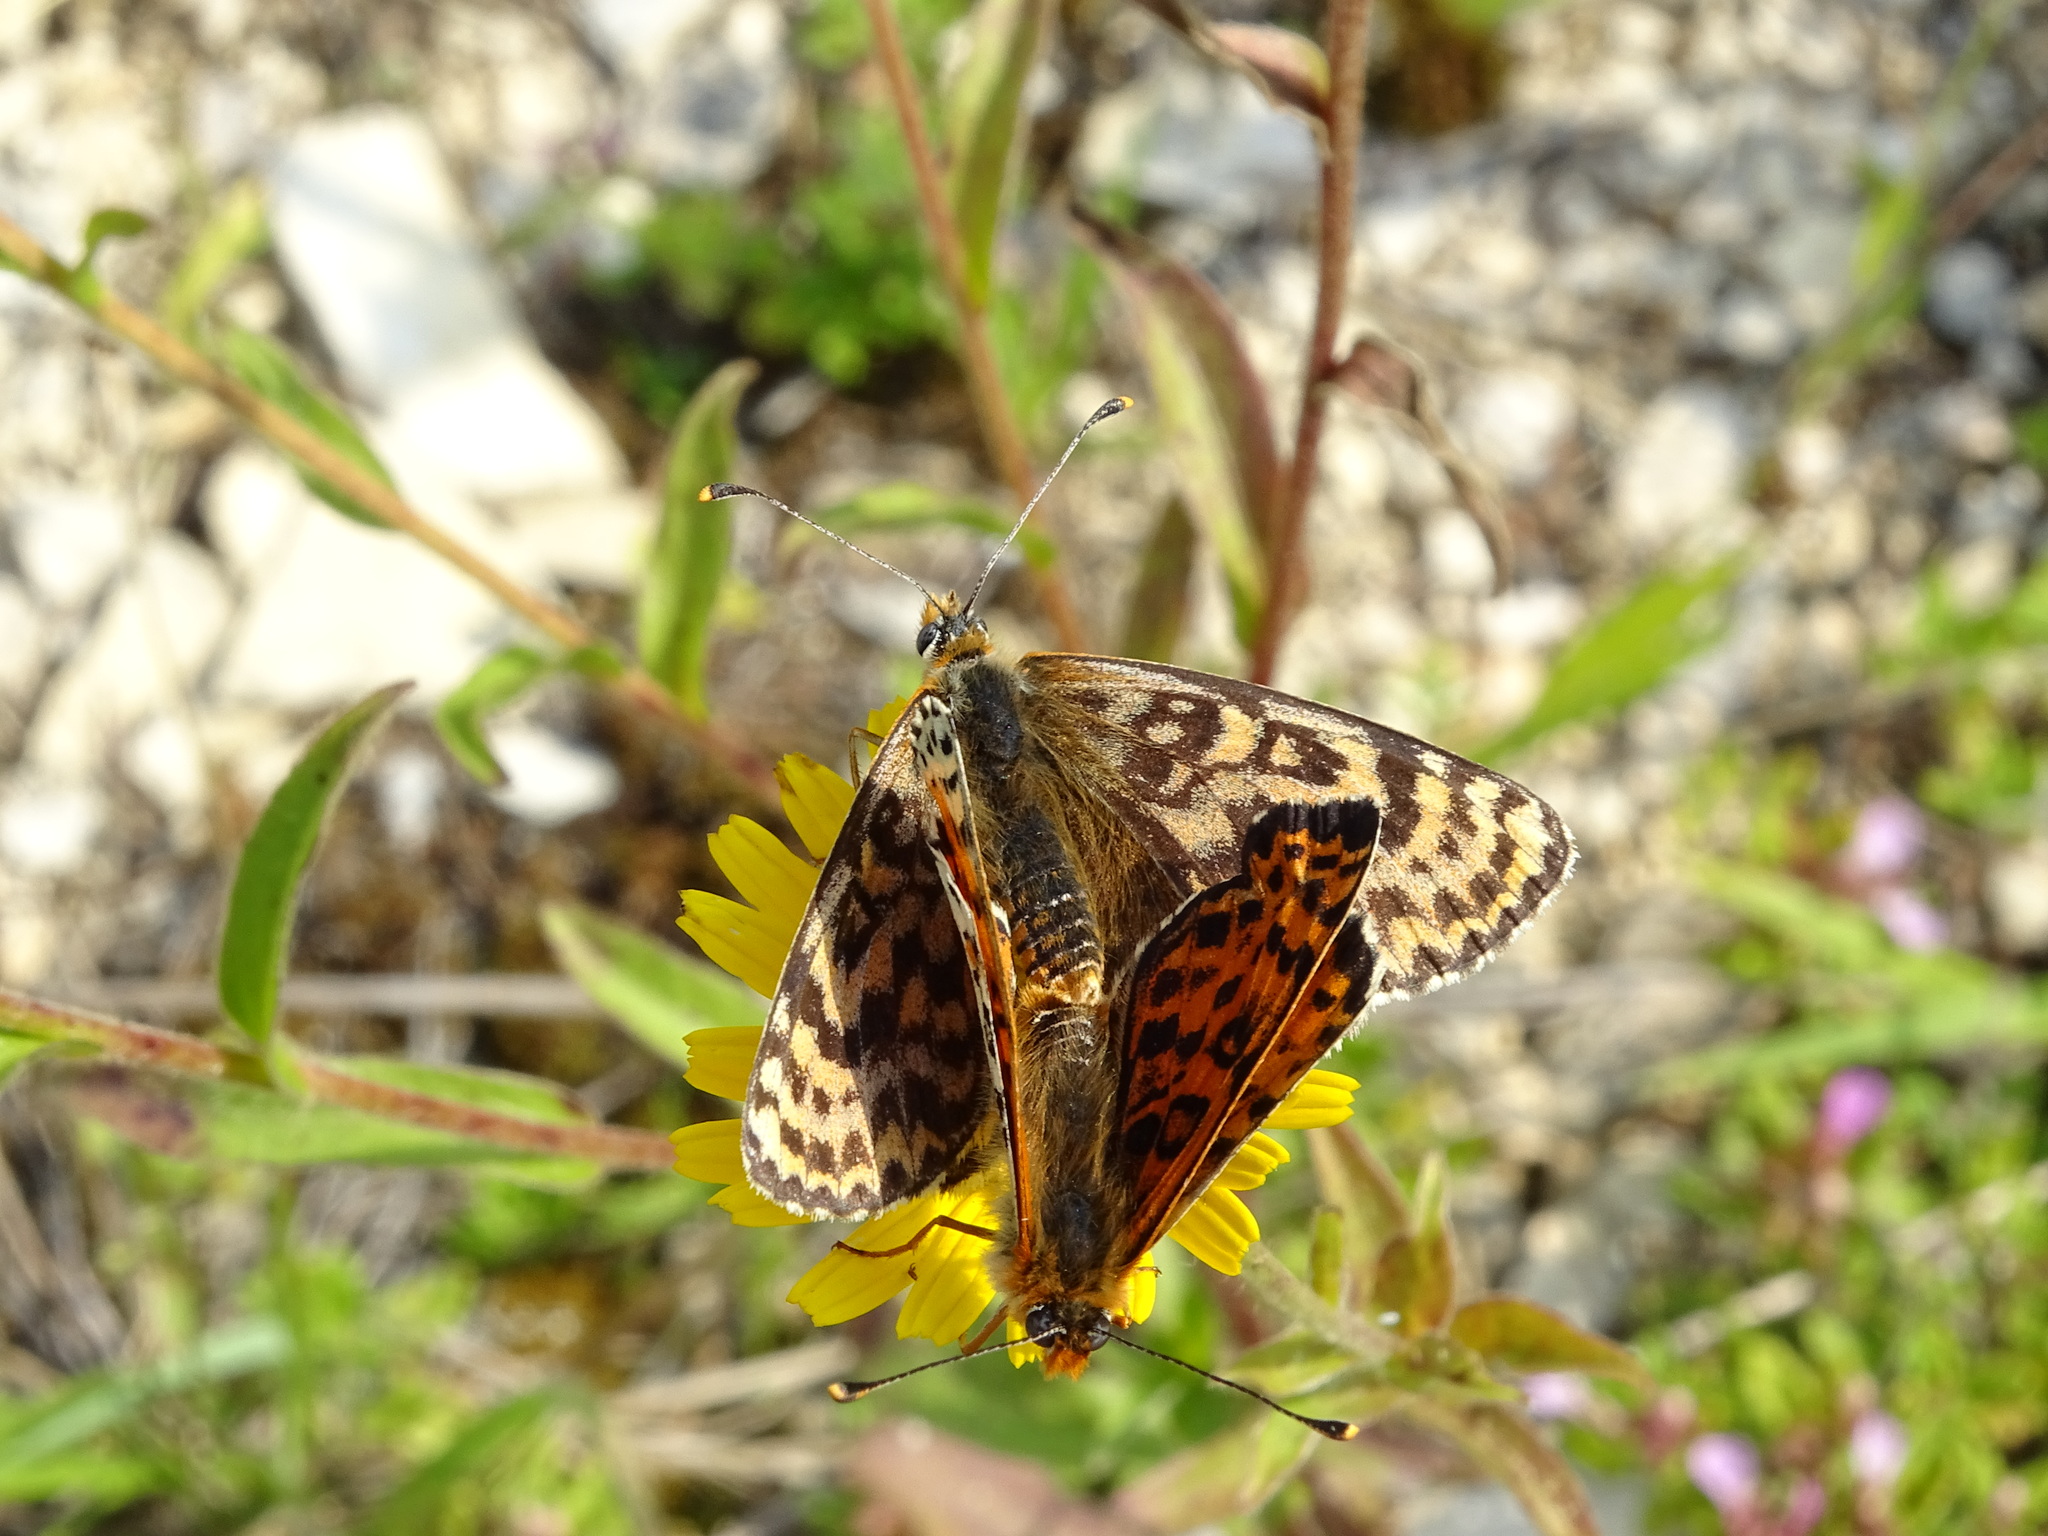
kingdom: Animalia
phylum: Arthropoda
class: Insecta
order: Lepidoptera
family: Nymphalidae
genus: Melitaea
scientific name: Melitaea didyma
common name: Spotted fritillary
